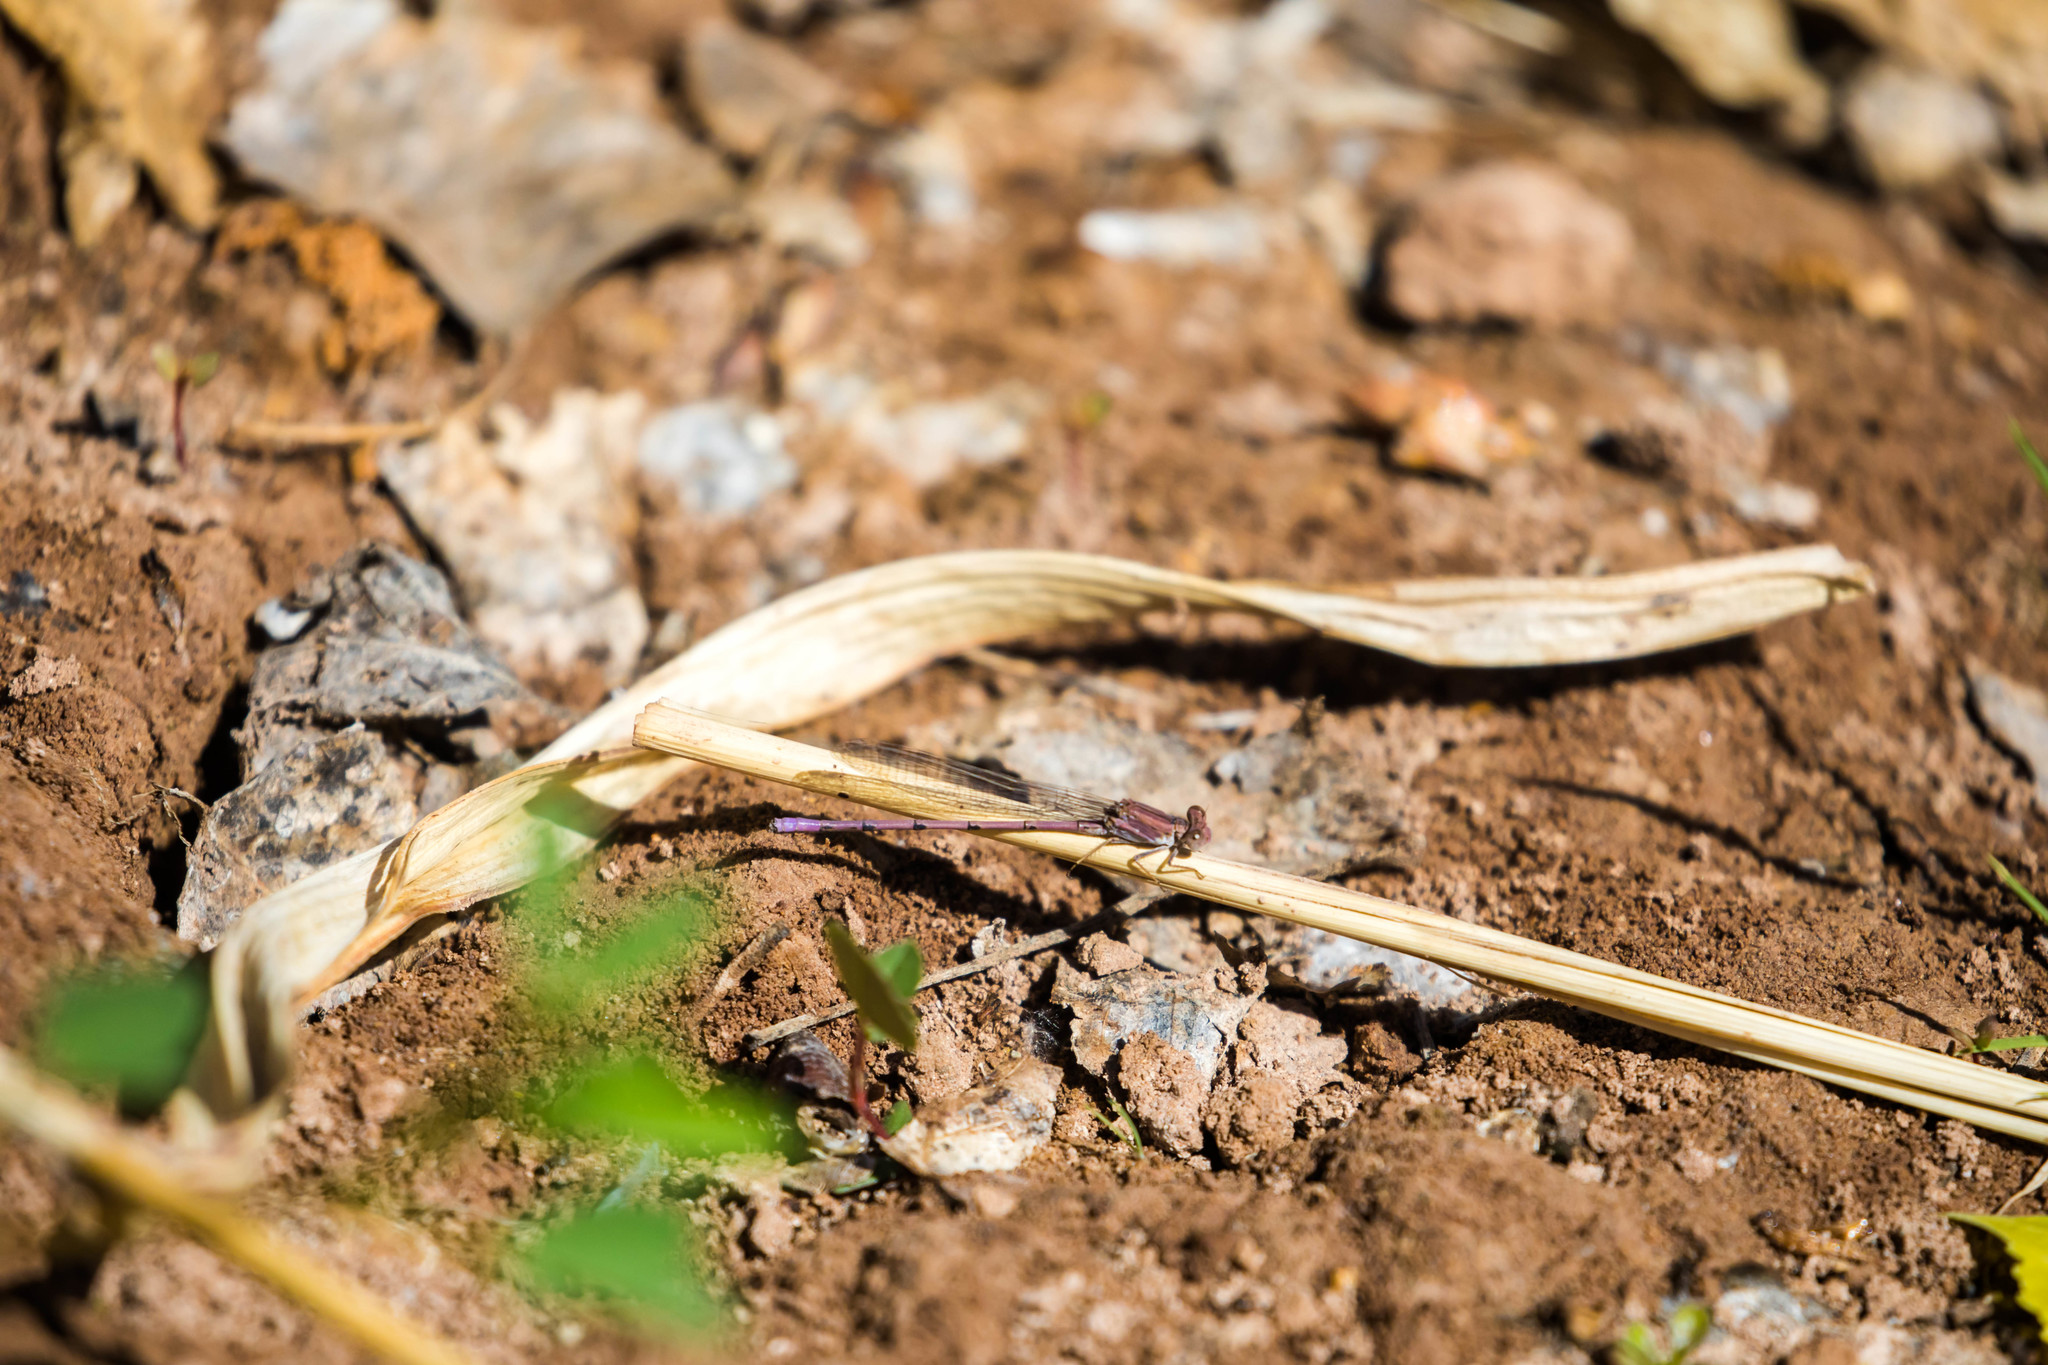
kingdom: Animalia
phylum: Arthropoda
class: Insecta
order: Odonata
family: Coenagrionidae
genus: Argia
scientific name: Argia pallens
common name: Amethyst dancer
